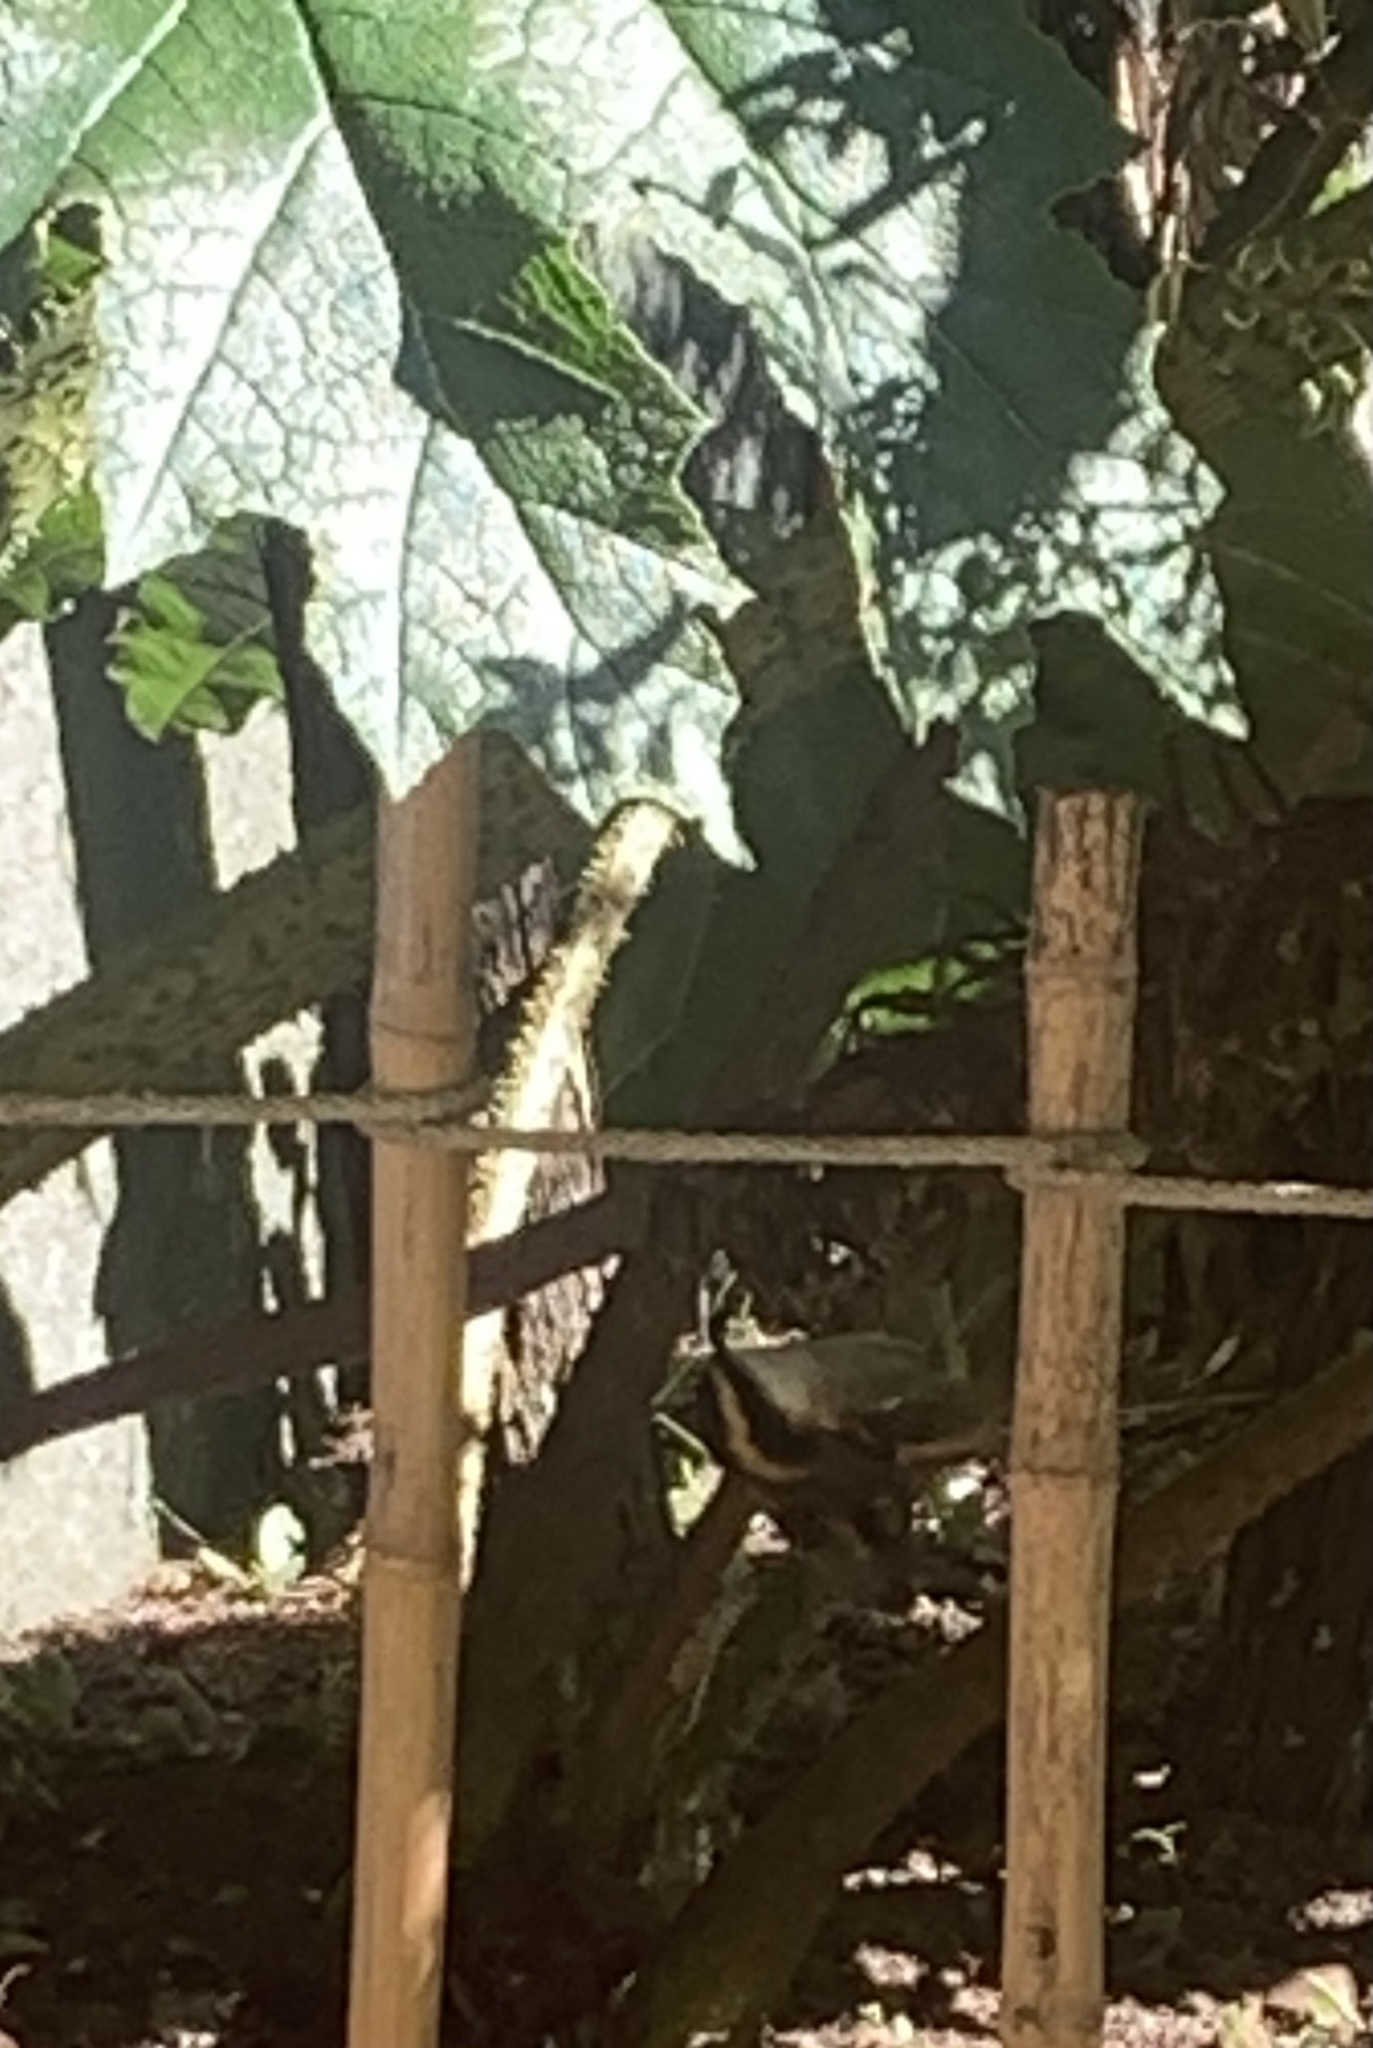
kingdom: Animalia
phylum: Chordata
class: Aves
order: Passeriformes
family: Furnariidae
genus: Aphrastura
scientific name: Aphrastura spinicauda
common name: Thorn-tailed rayadito
